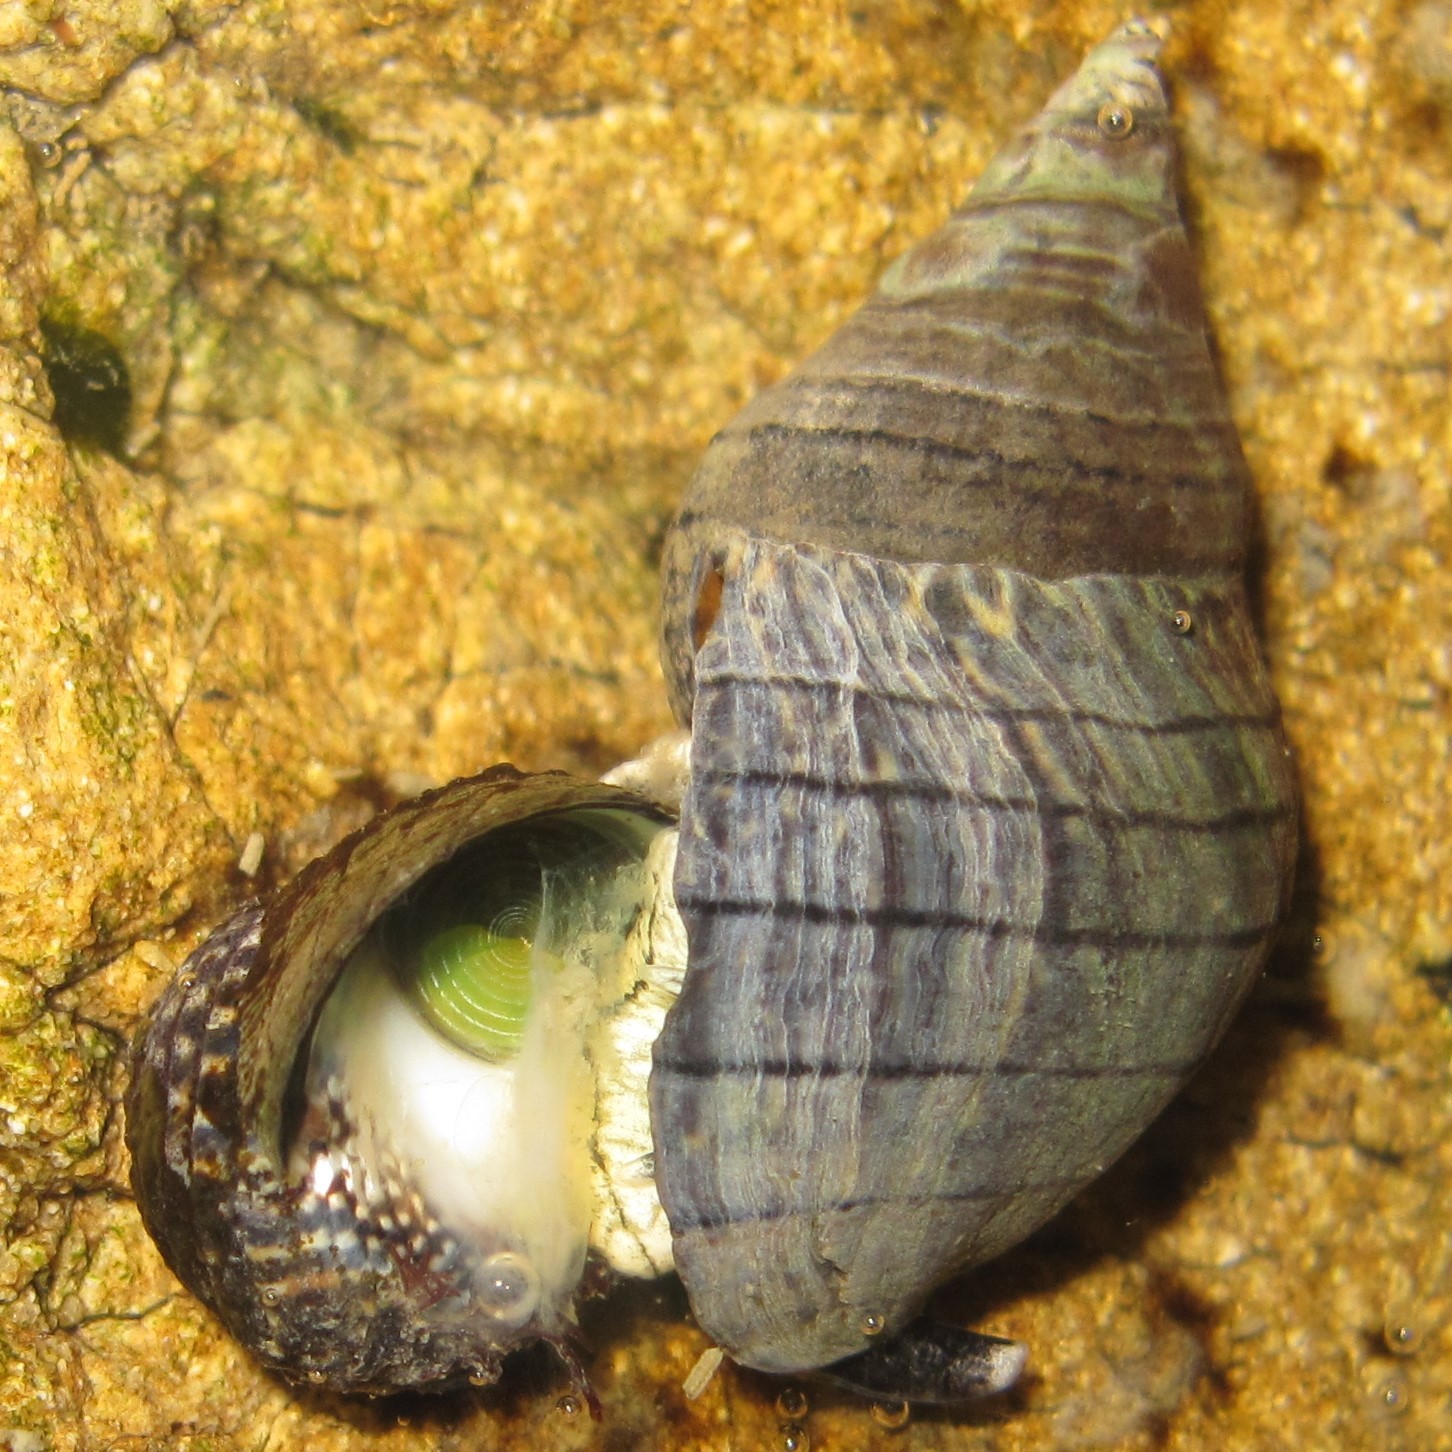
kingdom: Animalia
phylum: Mollusca
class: Gastropoda
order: Trochida
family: Trochidae
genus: Diloma
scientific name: Diloma aethiops
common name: Scorched monodont
